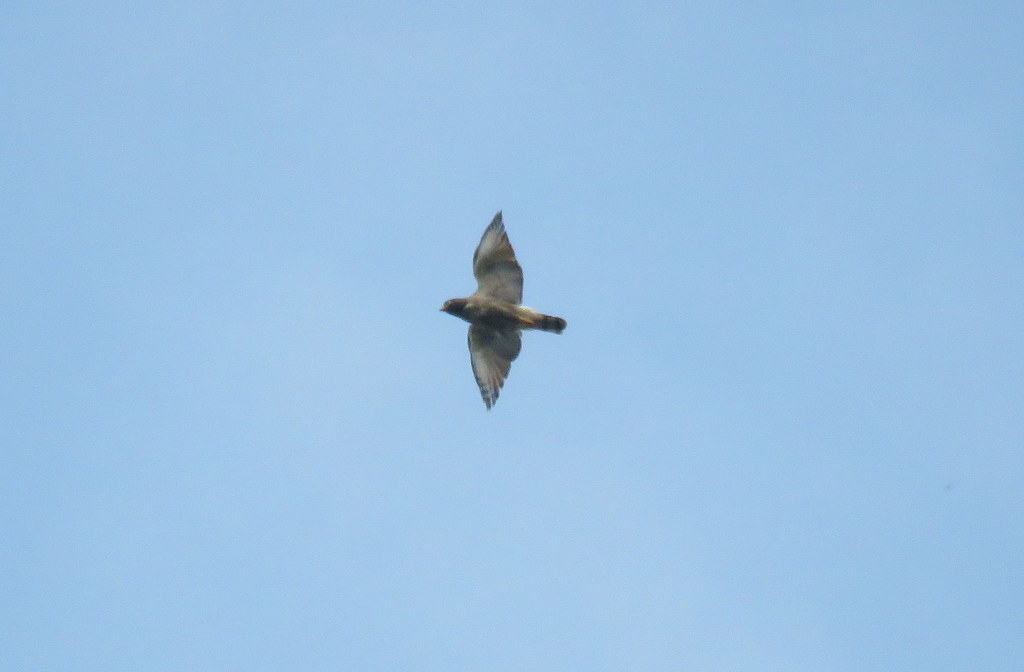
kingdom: Animalia
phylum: Chordata
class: Aves
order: Accipitriformes
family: Accipitridae
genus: Rupornis
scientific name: Rupornis magnirostris
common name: Roadside hawk
